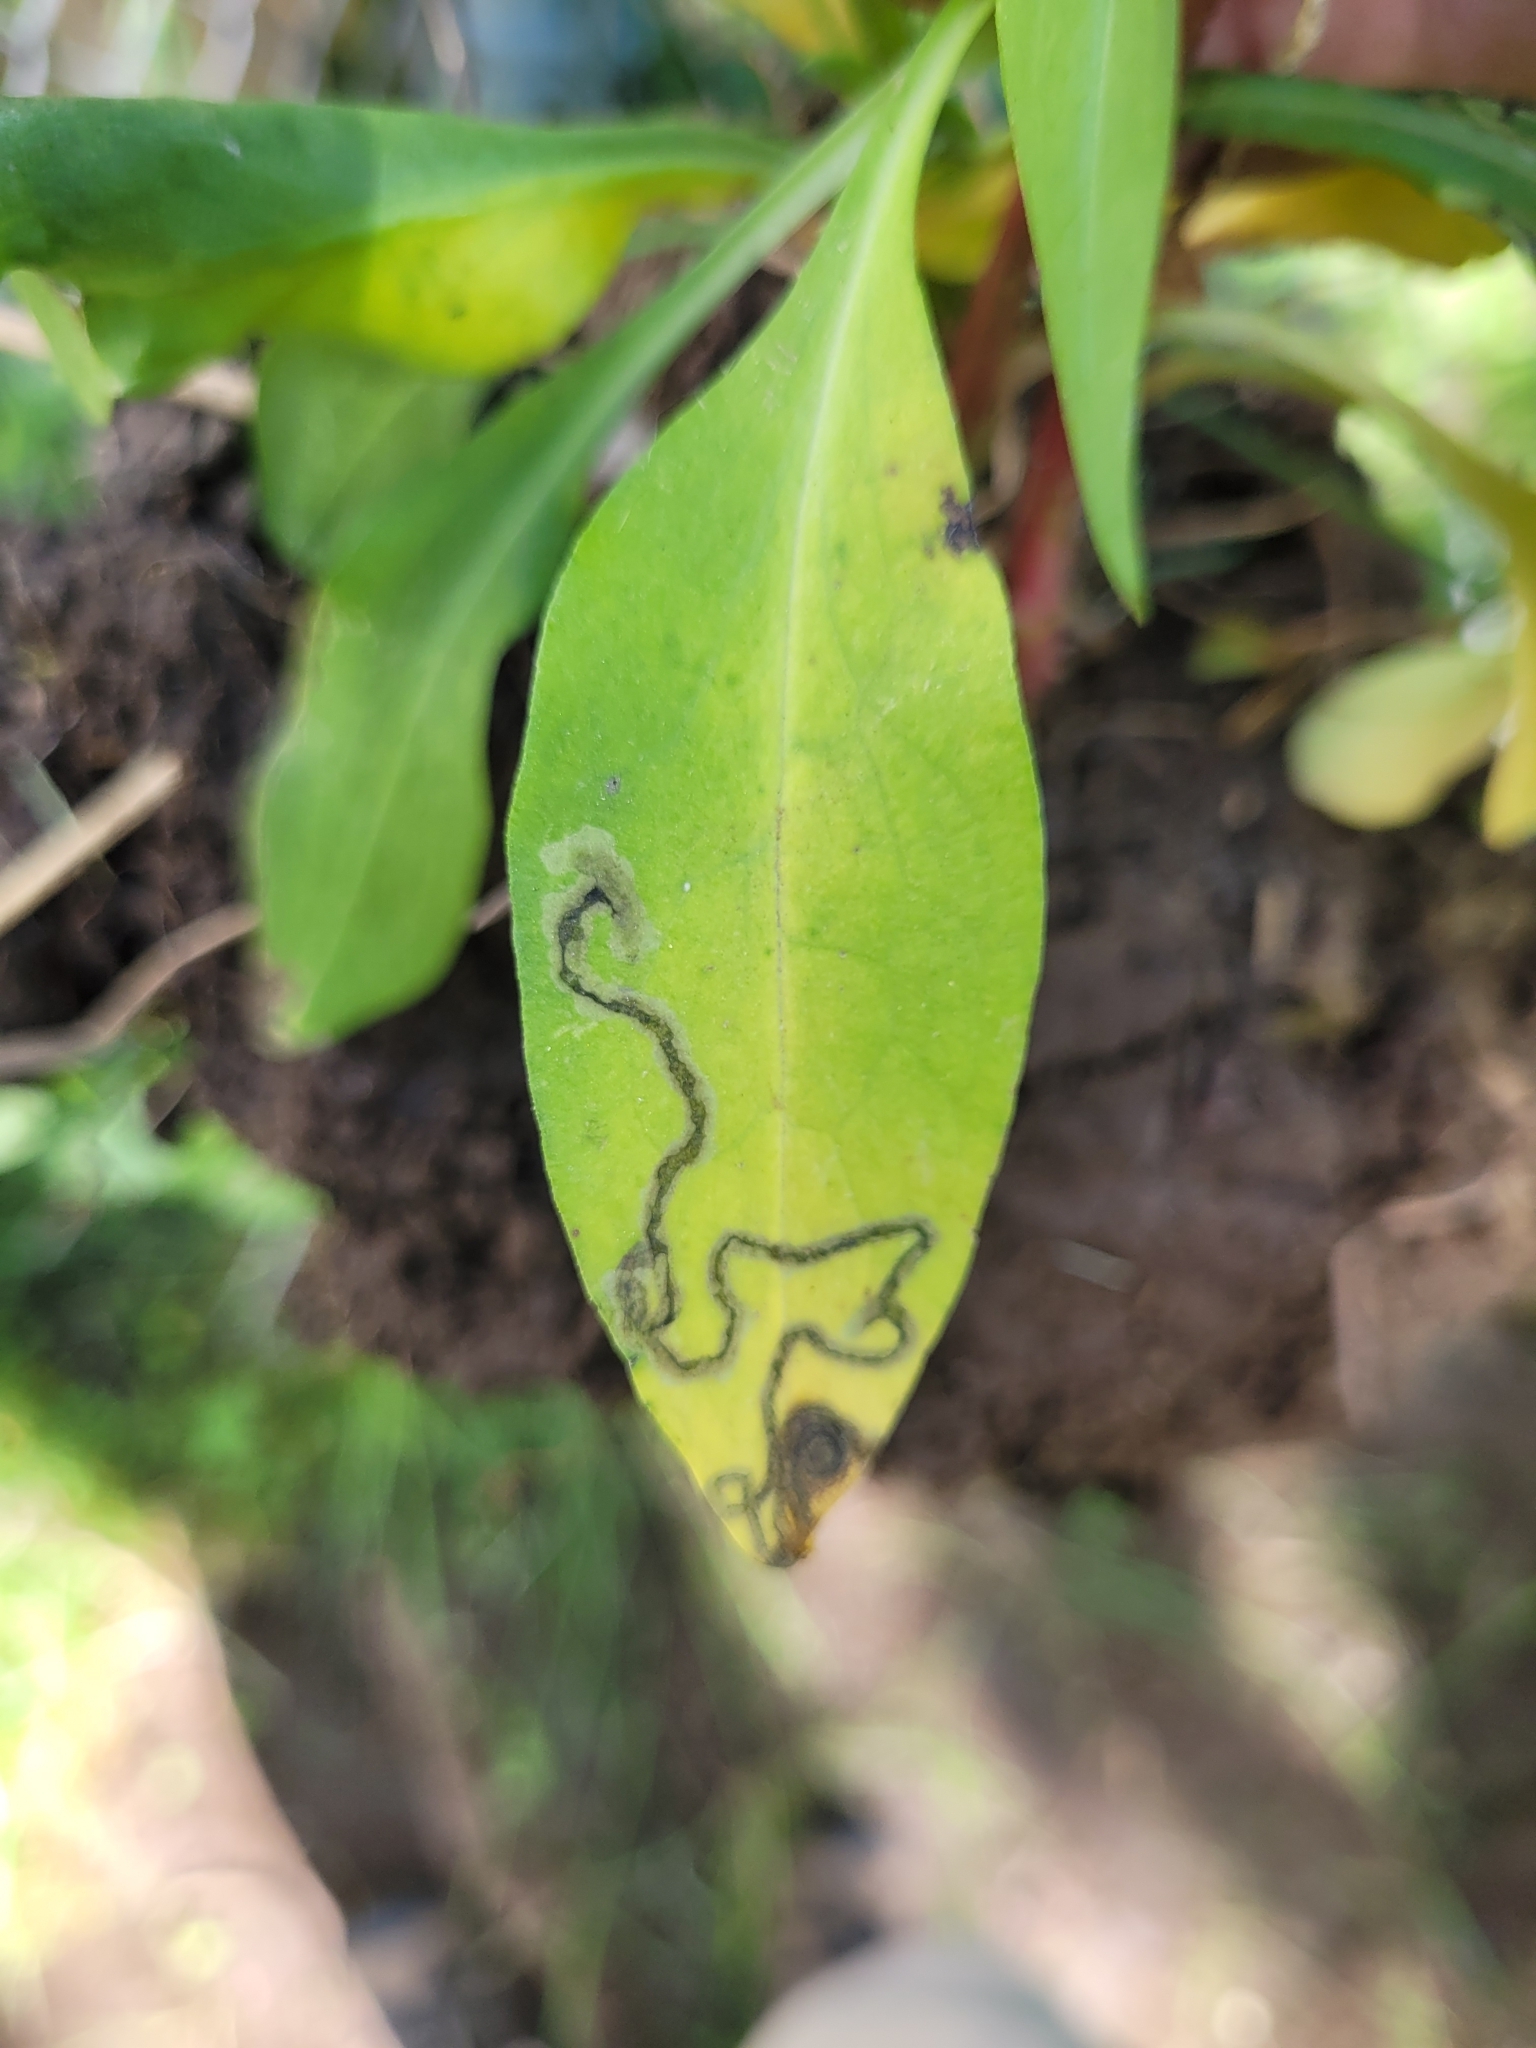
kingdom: Animalia
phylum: Arthropoda
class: Insecta
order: Diptera
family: Agromyzidae
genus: Liriomyza
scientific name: Liriomyza eupatorii
